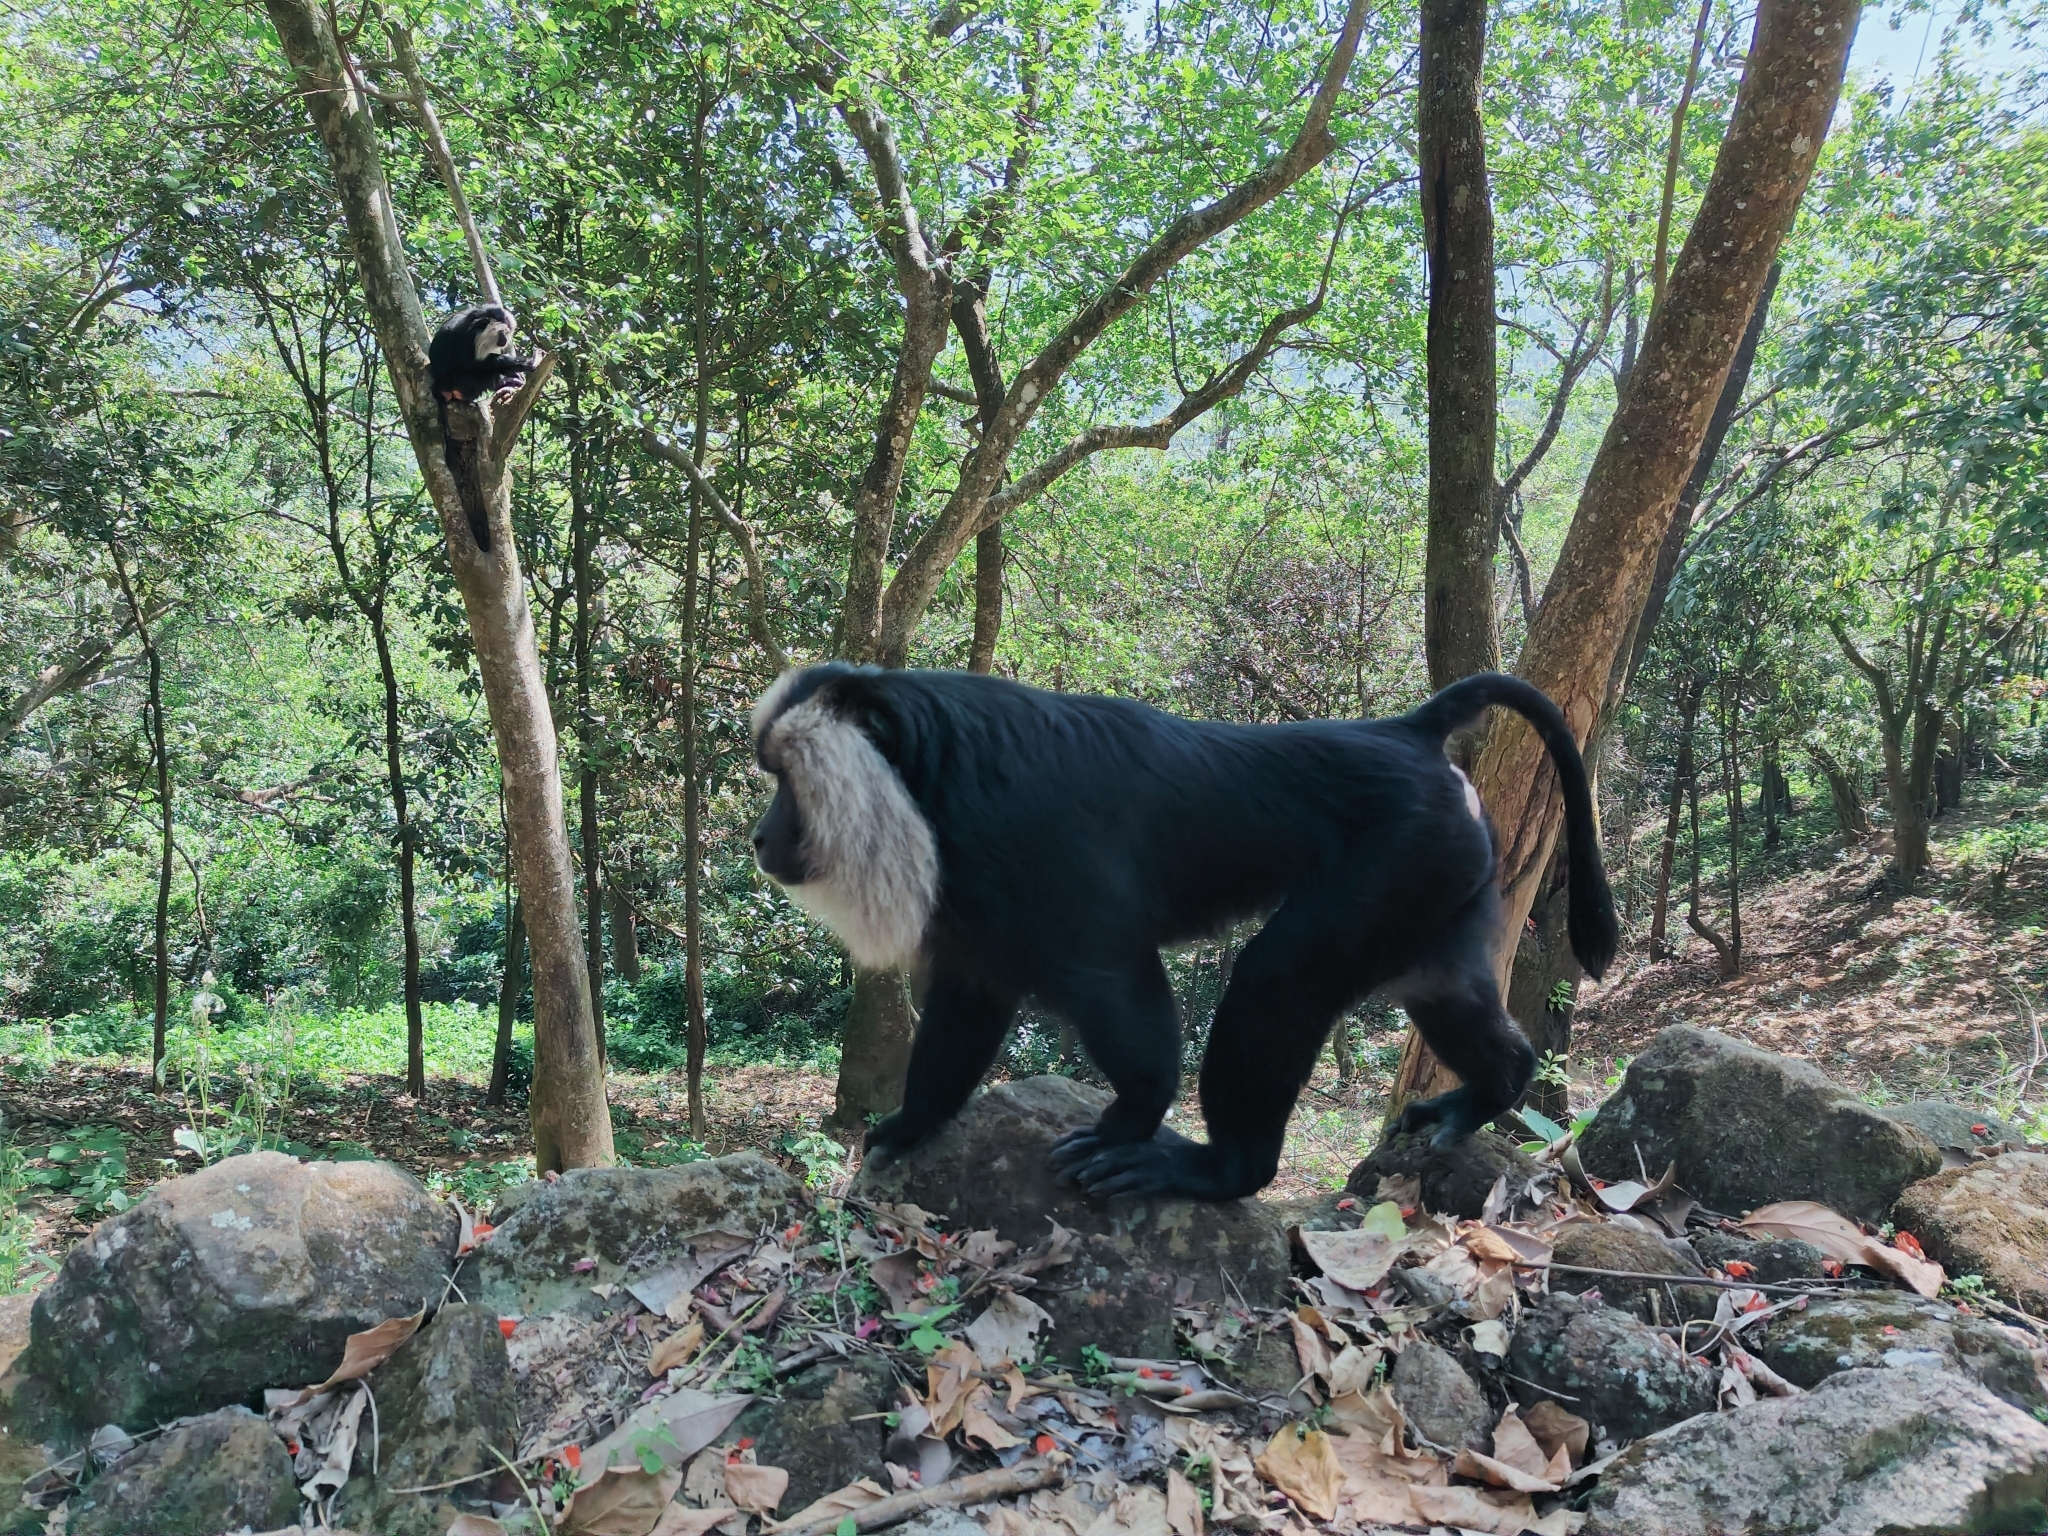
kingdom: Animalia
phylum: Chordata
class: Mammalia
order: Primates
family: Cercopithecidae
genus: Macaca
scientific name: Macaca silenus
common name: Lion-tailed macaque
